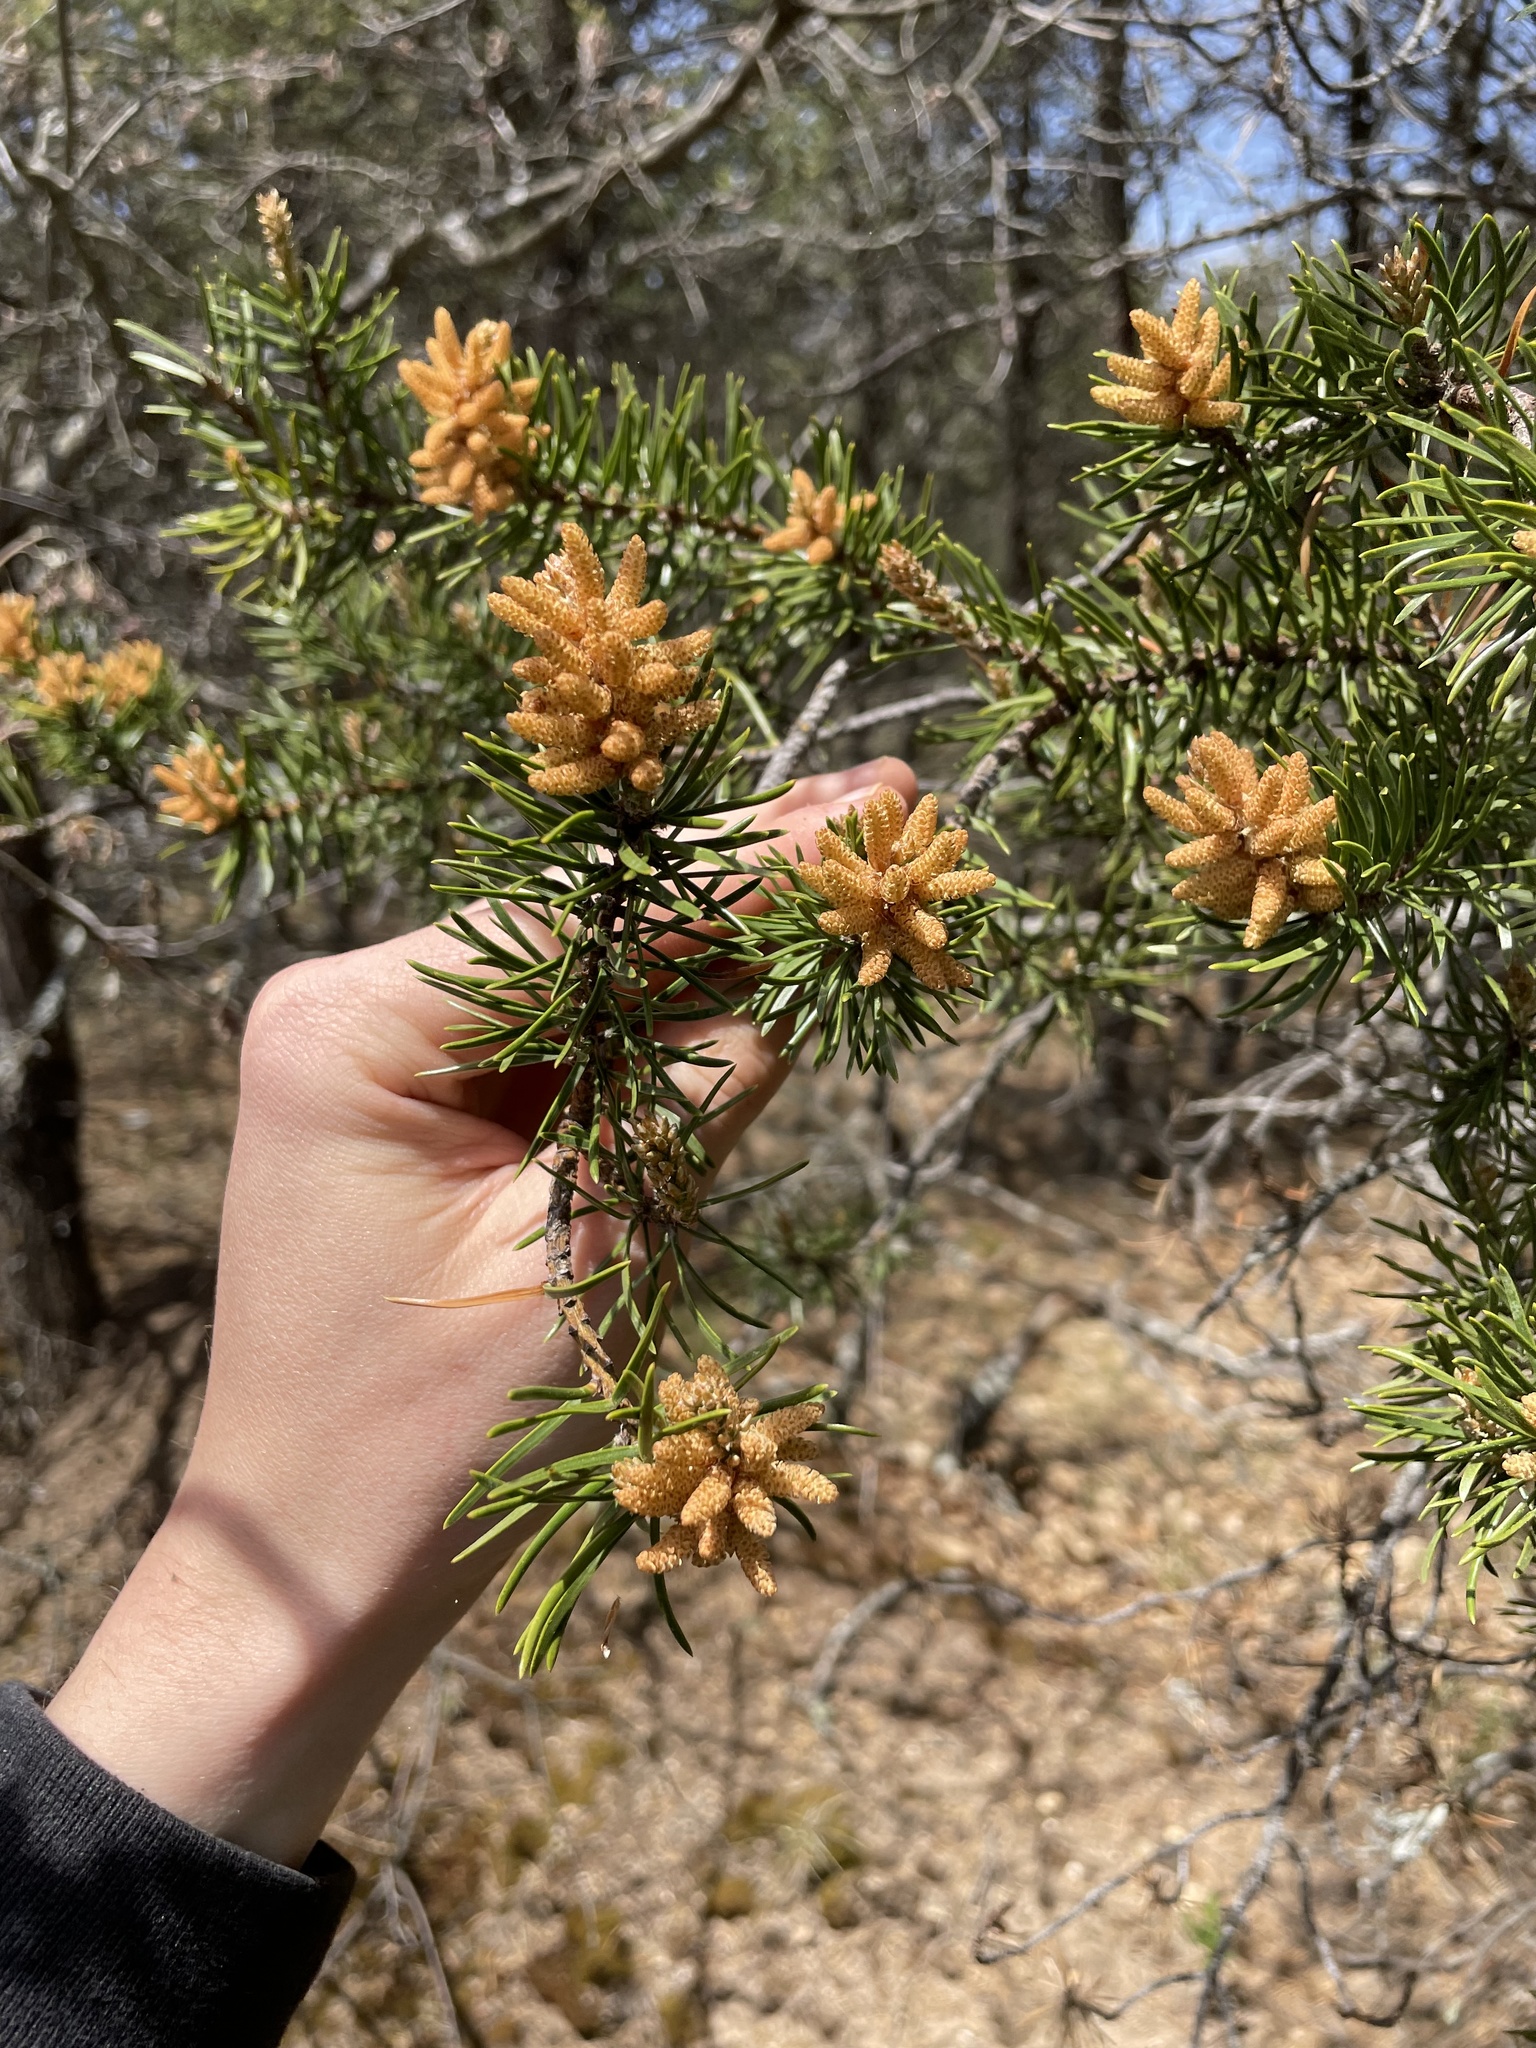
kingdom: Plantae
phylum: Tracheophyta
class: Pinopsida
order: Pinales
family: Pinaceae
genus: Pinus
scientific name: Pinus banksiana
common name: Jack pine
